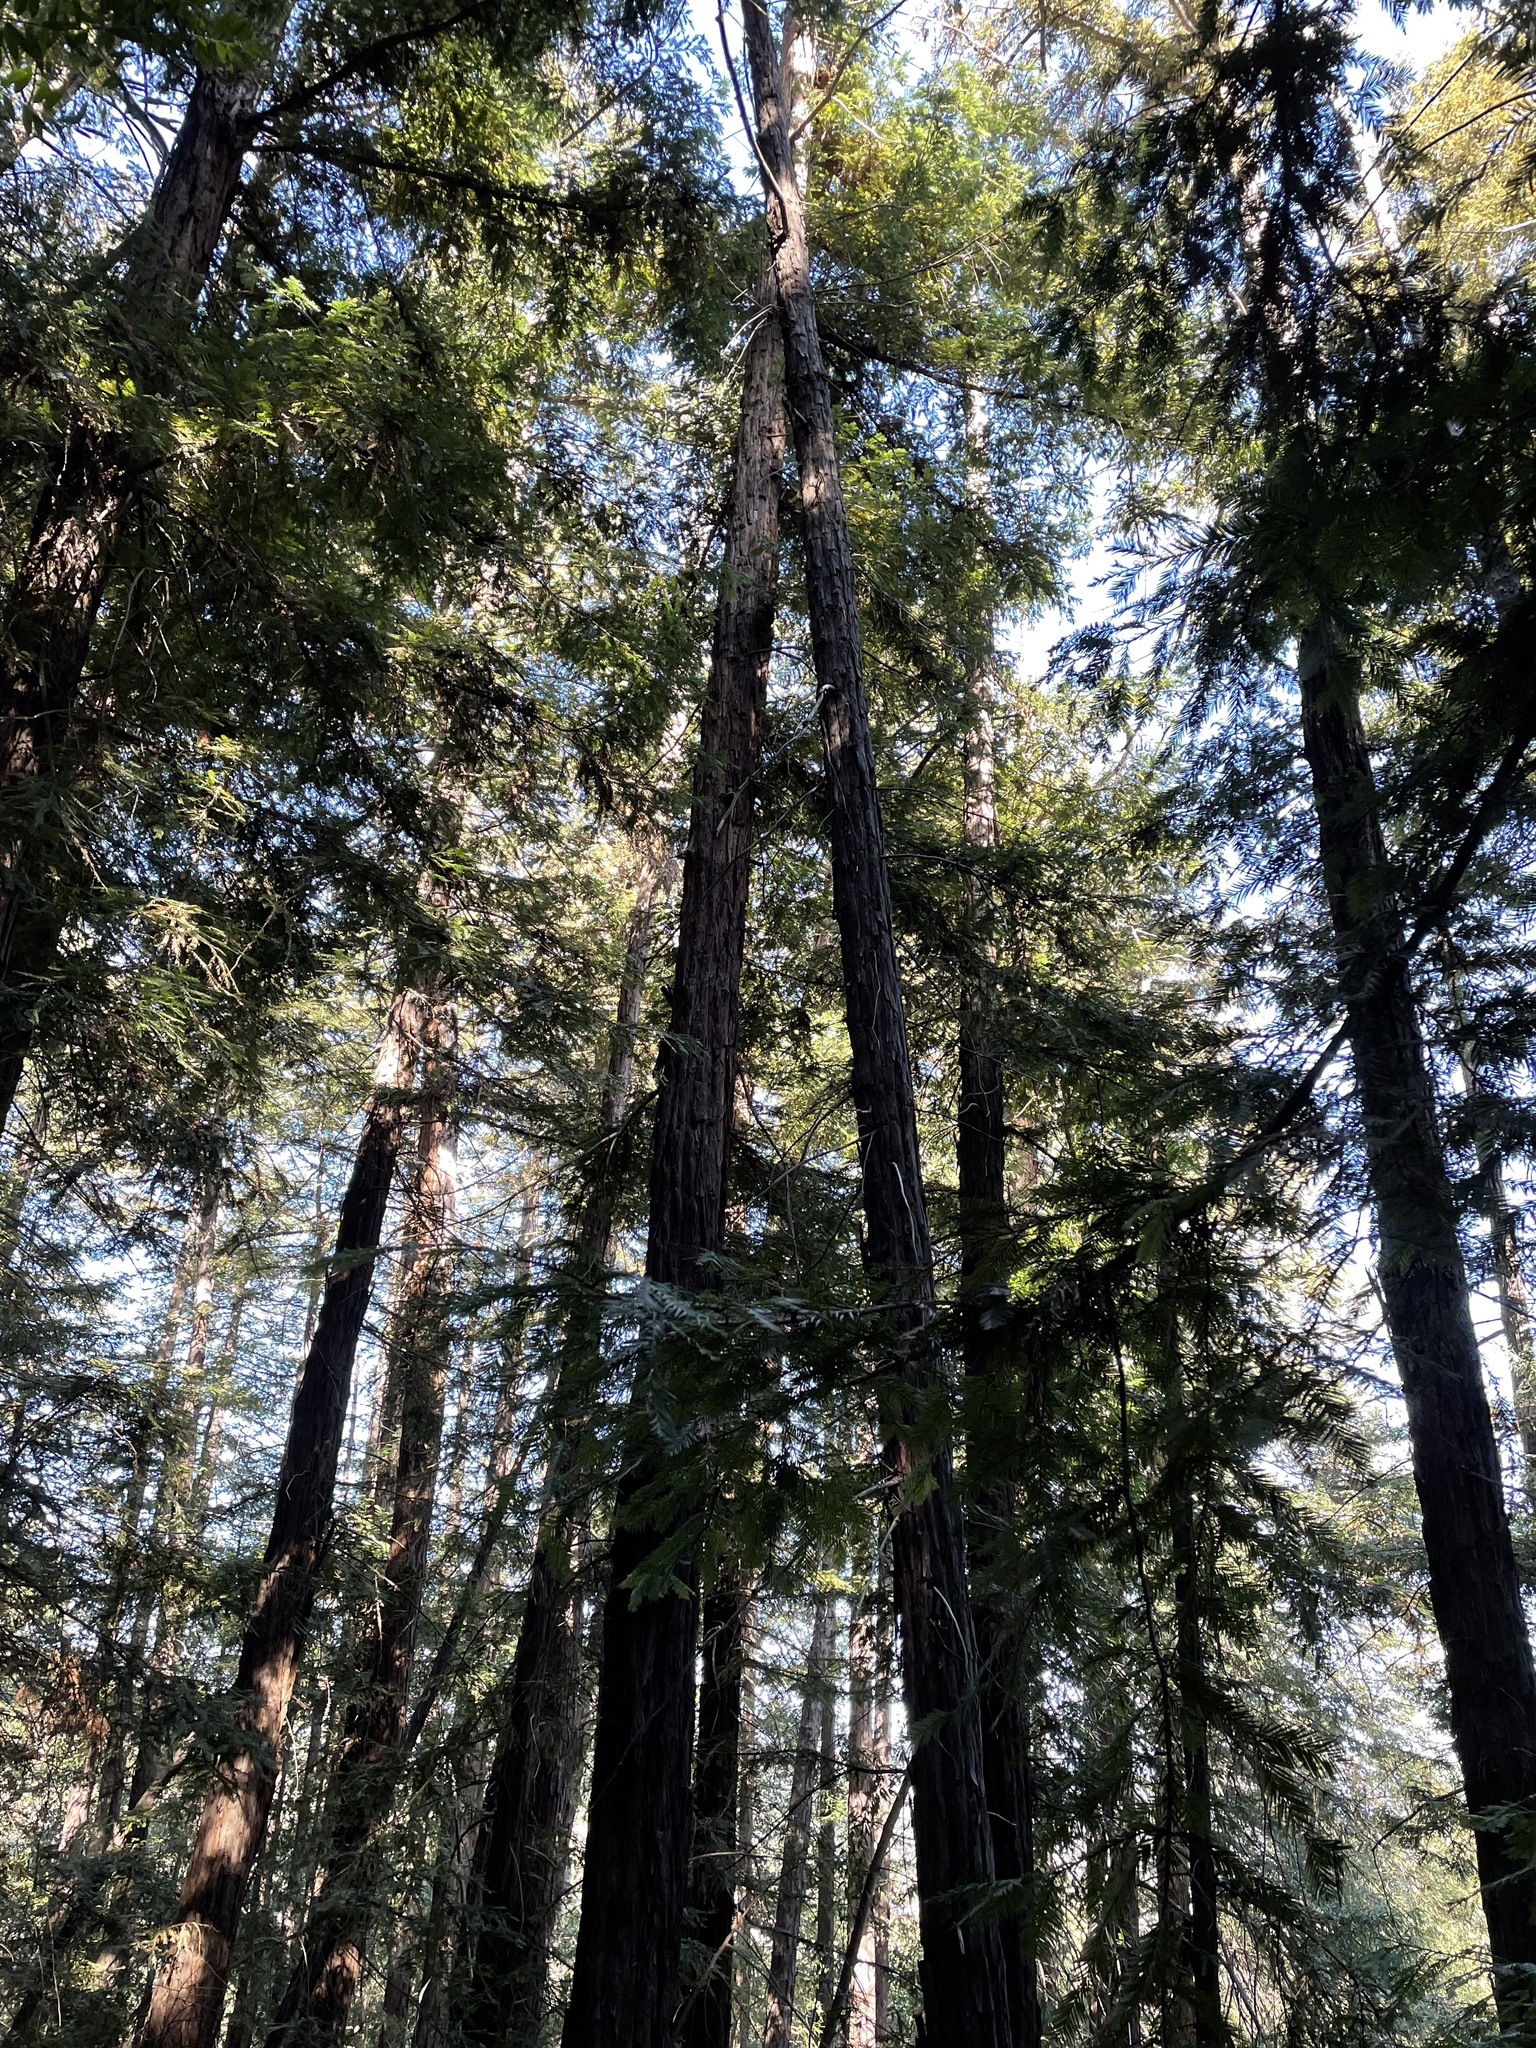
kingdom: Plantae
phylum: Tracheophyta
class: Pinopsida
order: Pinales
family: Cupressaceae
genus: Sequoia
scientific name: Sequoia sempervirens
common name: Coast redwood
